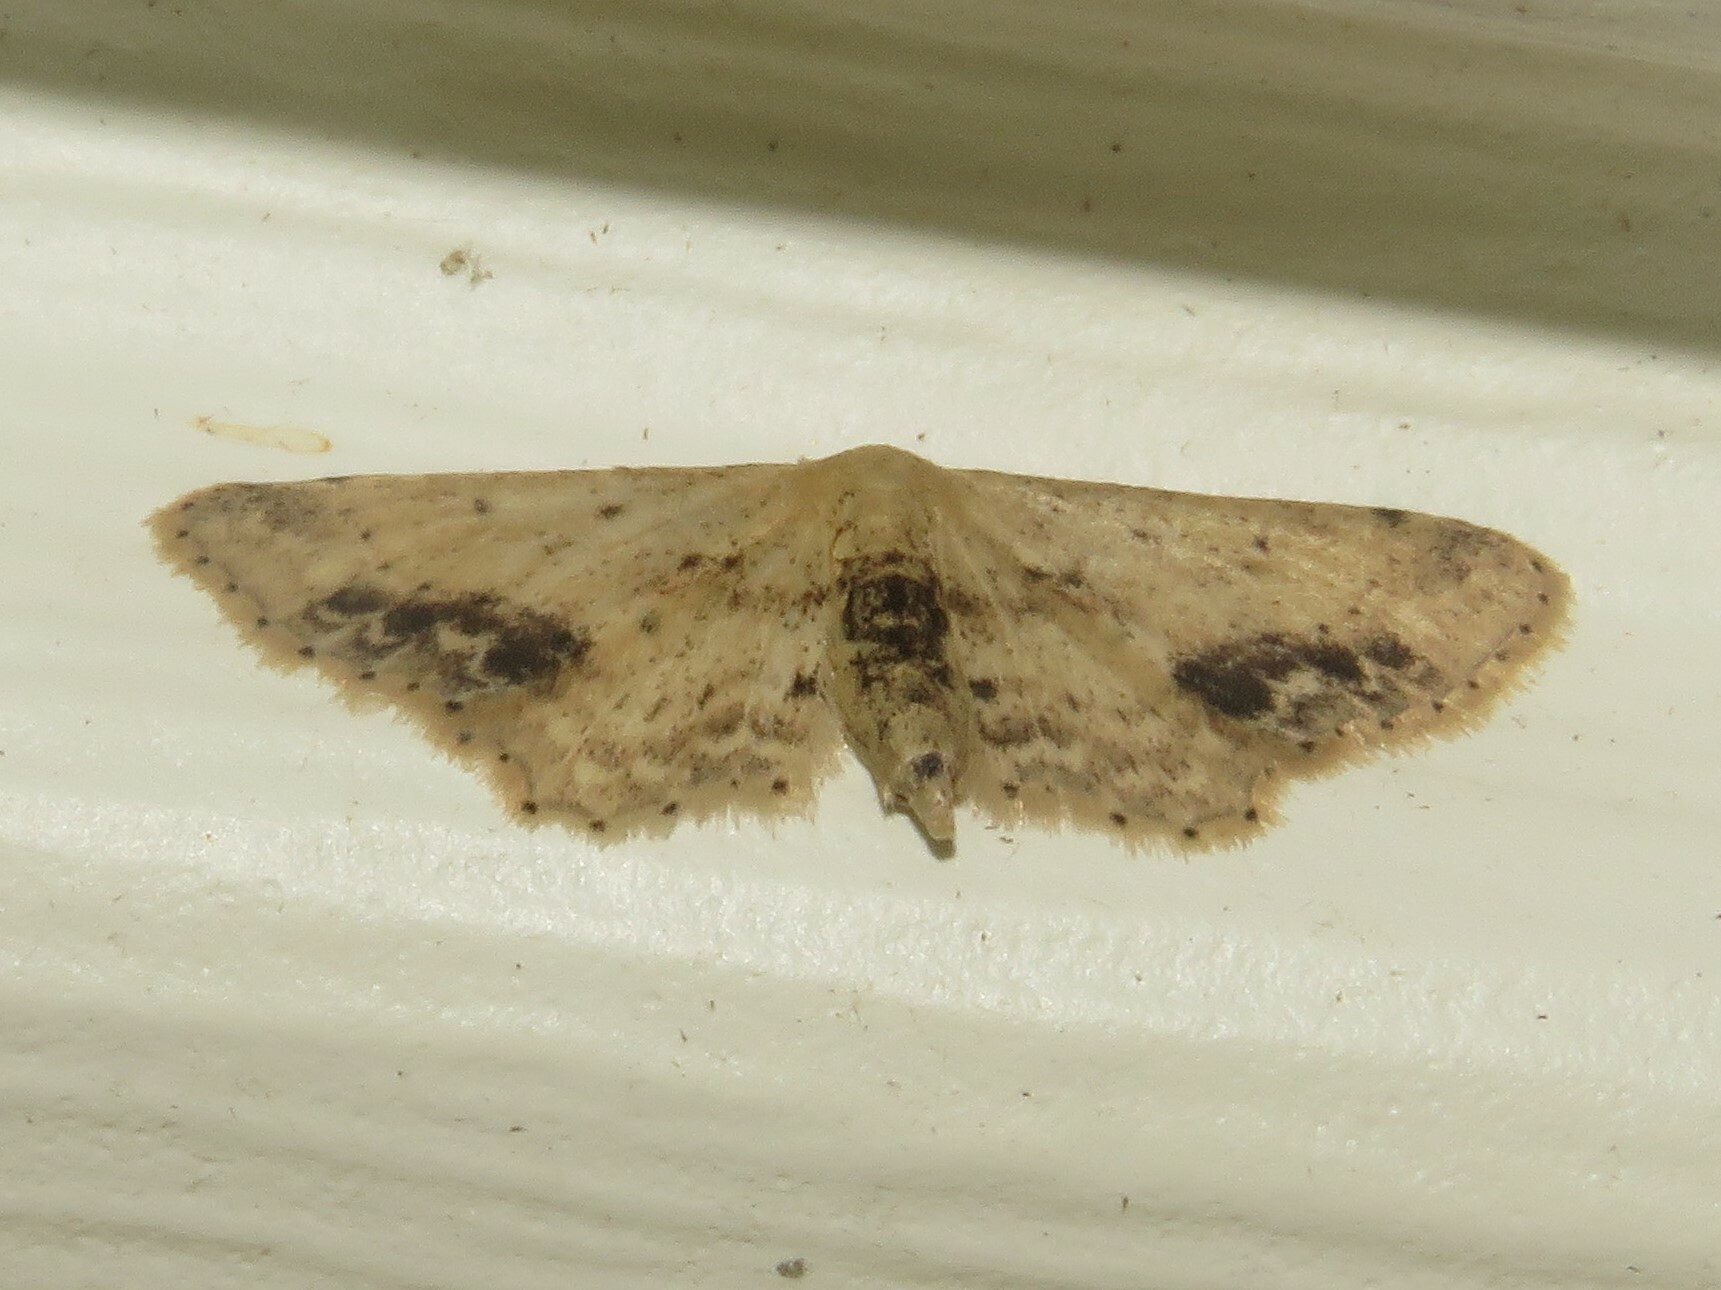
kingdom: Animalia
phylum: Arthropoda
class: Insecta
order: Lepidoptera
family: Geometridae
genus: Idaea
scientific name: Idaea dimidiata
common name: Single-dotted wave
